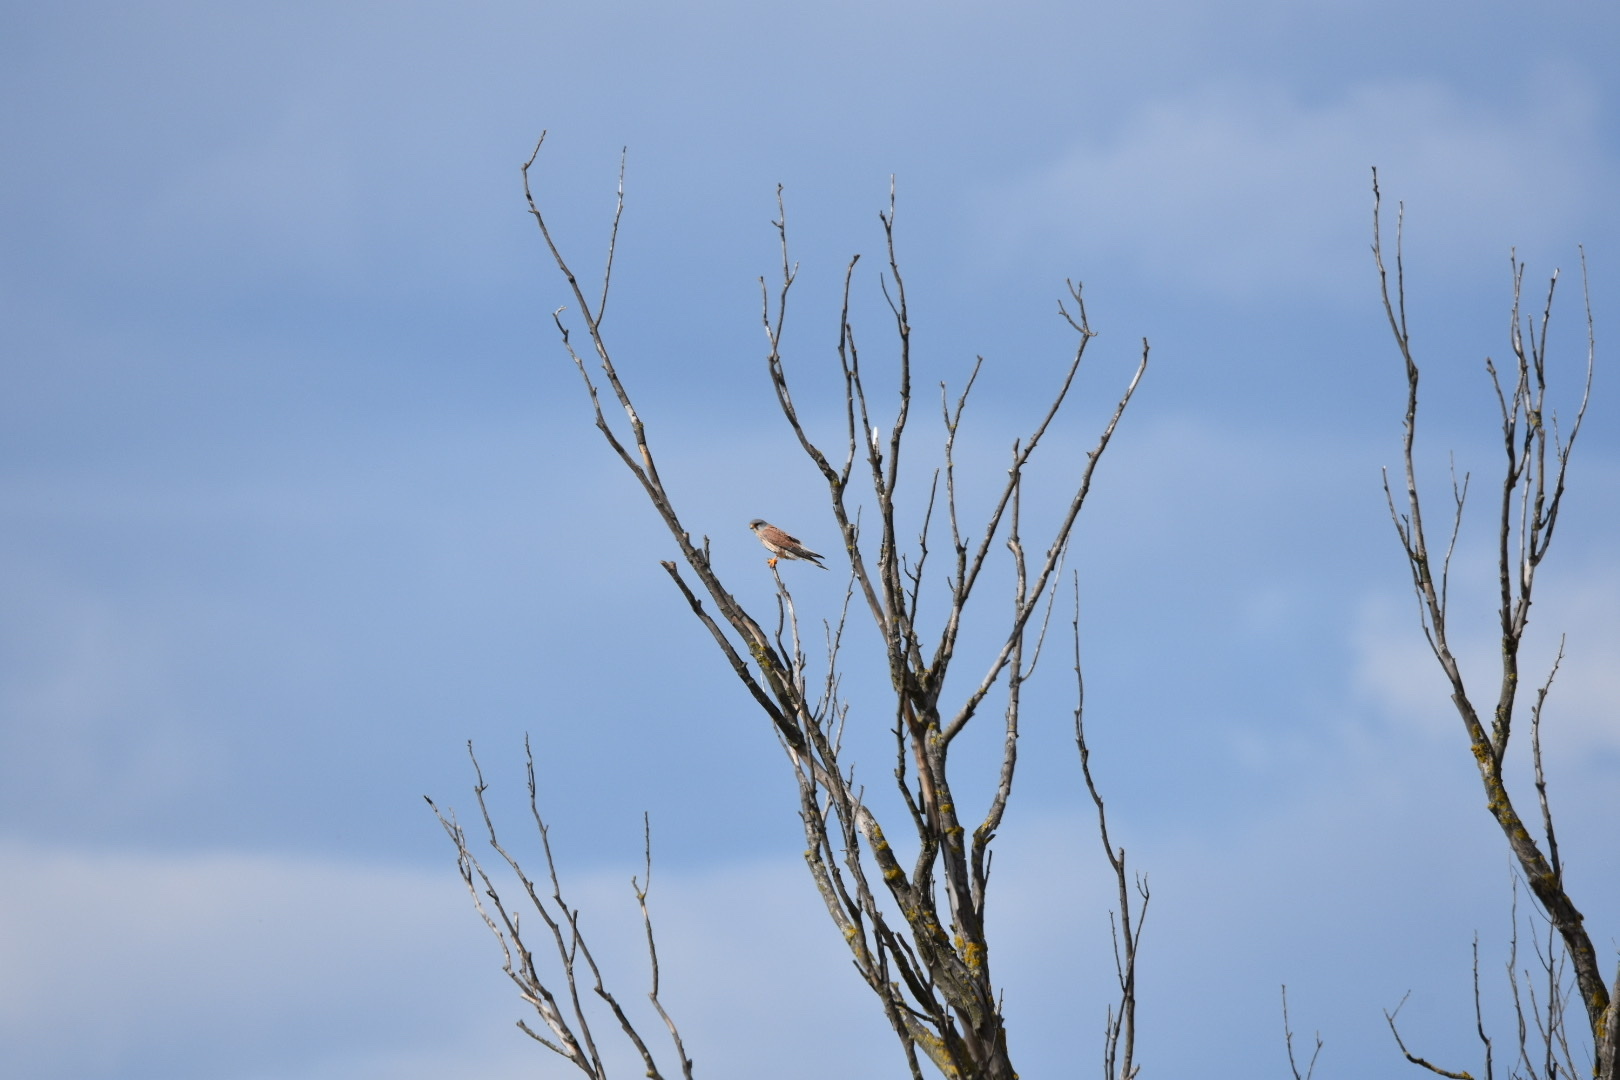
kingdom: Animalia
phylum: Chordata
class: Aves
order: Falconiformes
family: Falconidae
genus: Falco
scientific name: Falco tinnunculus
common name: Common kestrel
